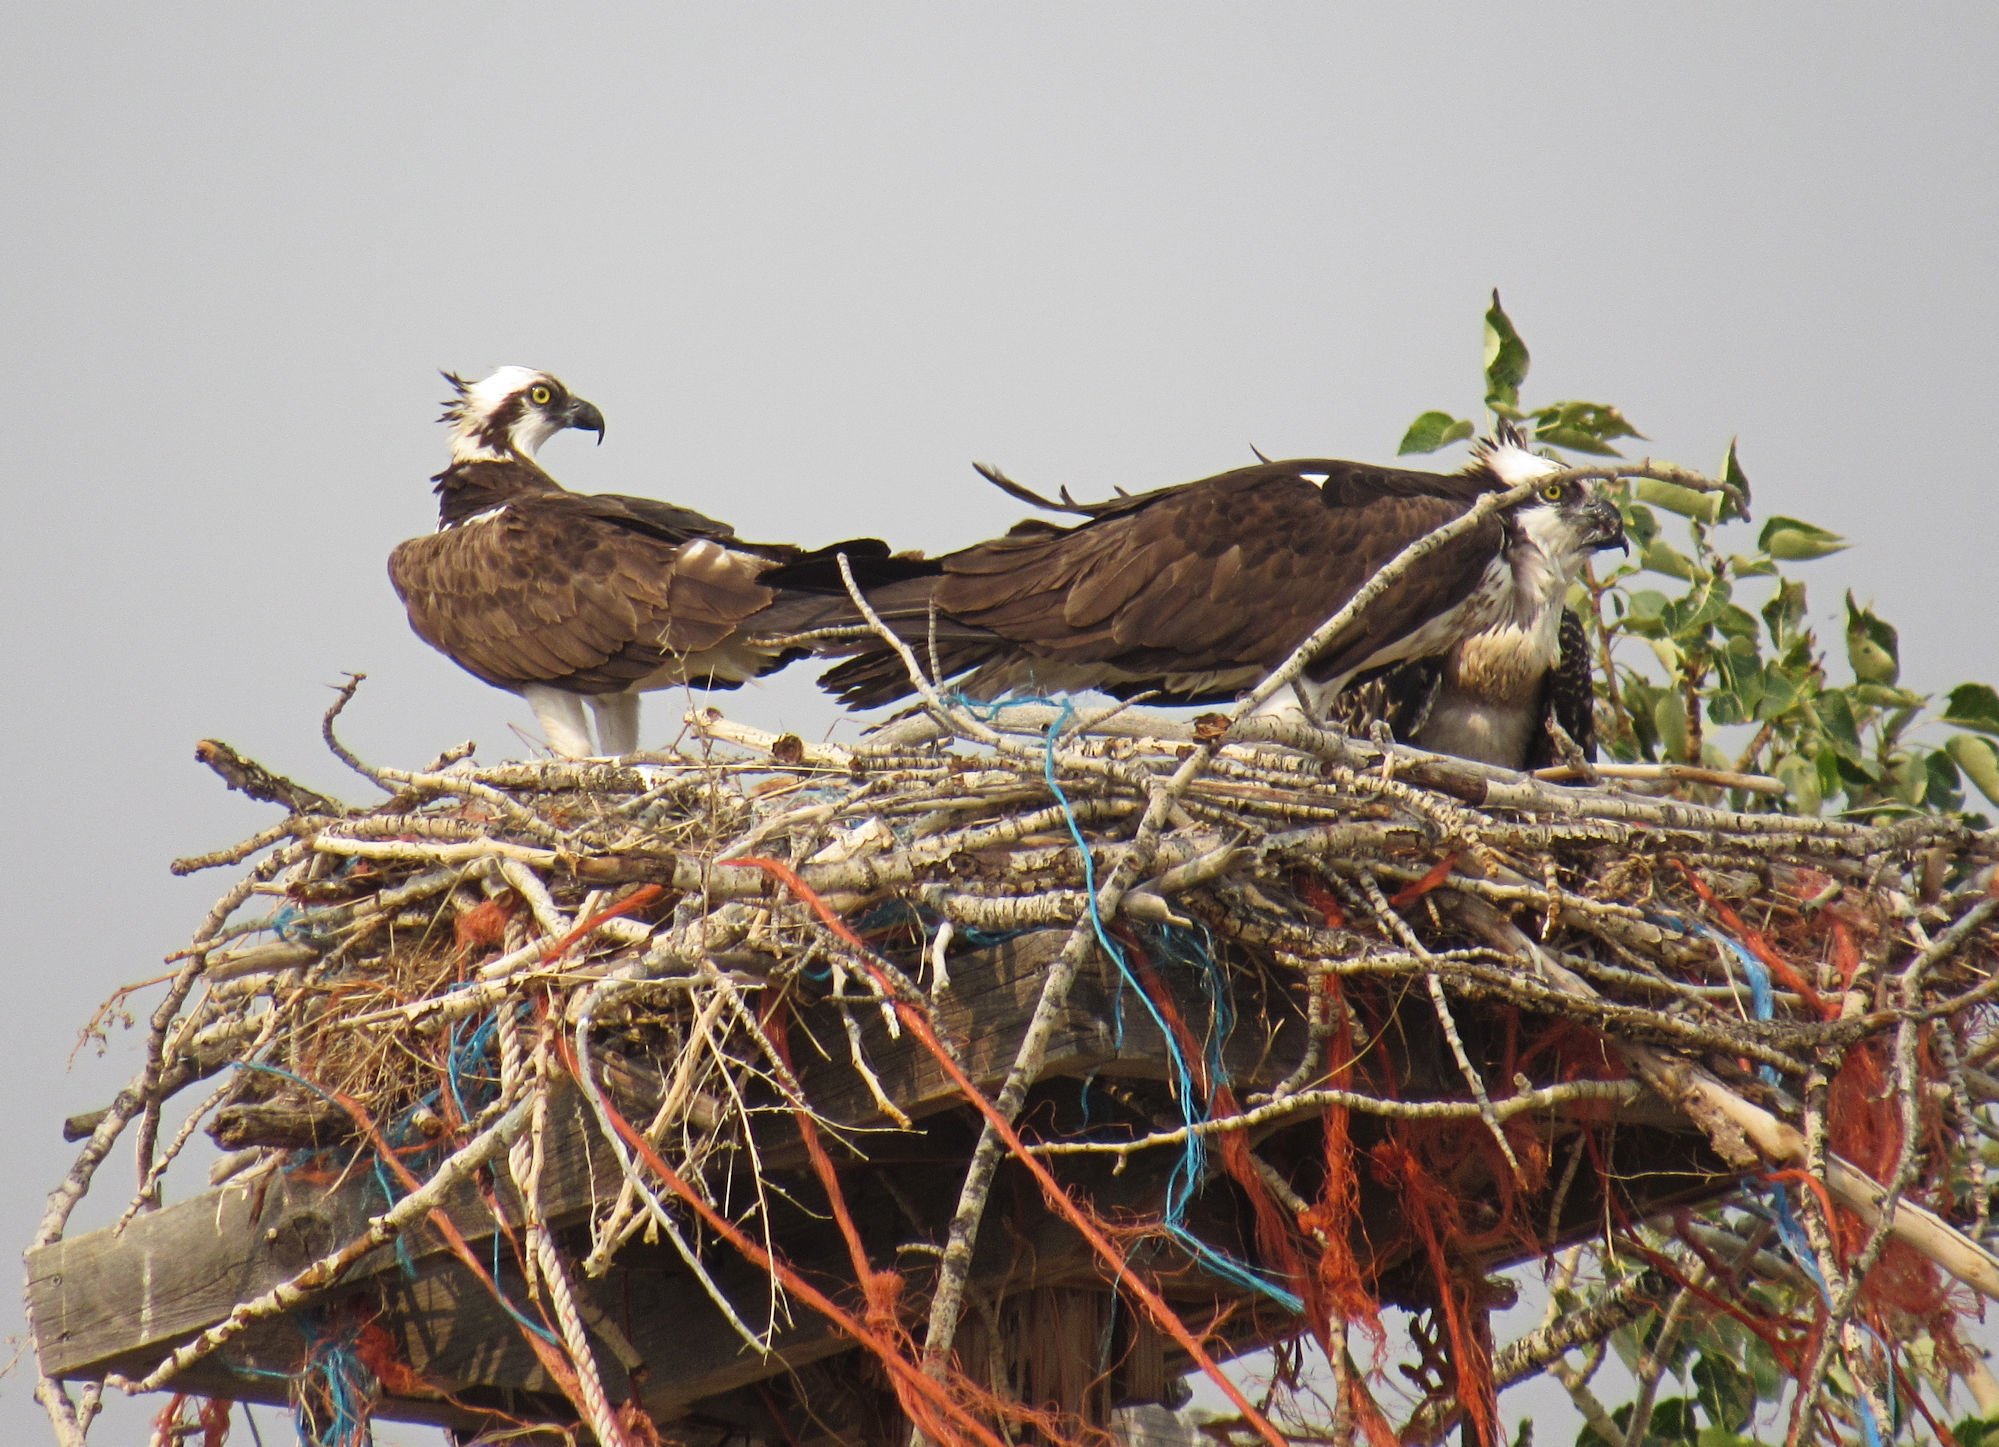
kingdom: Animalia
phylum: Chordata
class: Aves
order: Accipitriformes
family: Pandionidae
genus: Pandion
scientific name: Pandion haliaetus
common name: Osprey
